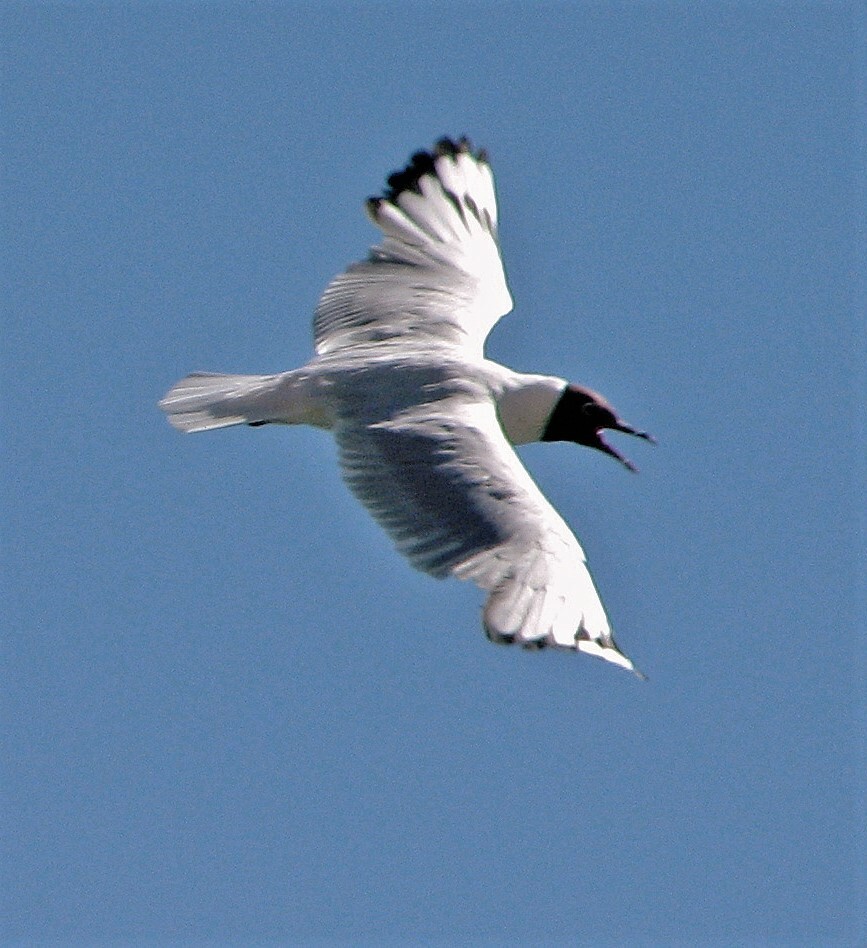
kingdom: Animalia
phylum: Chordata
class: Aves
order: Charadriiformes
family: Laridae
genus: Chroicocephalus
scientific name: Chroicocephalus serranus
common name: Andean gull
